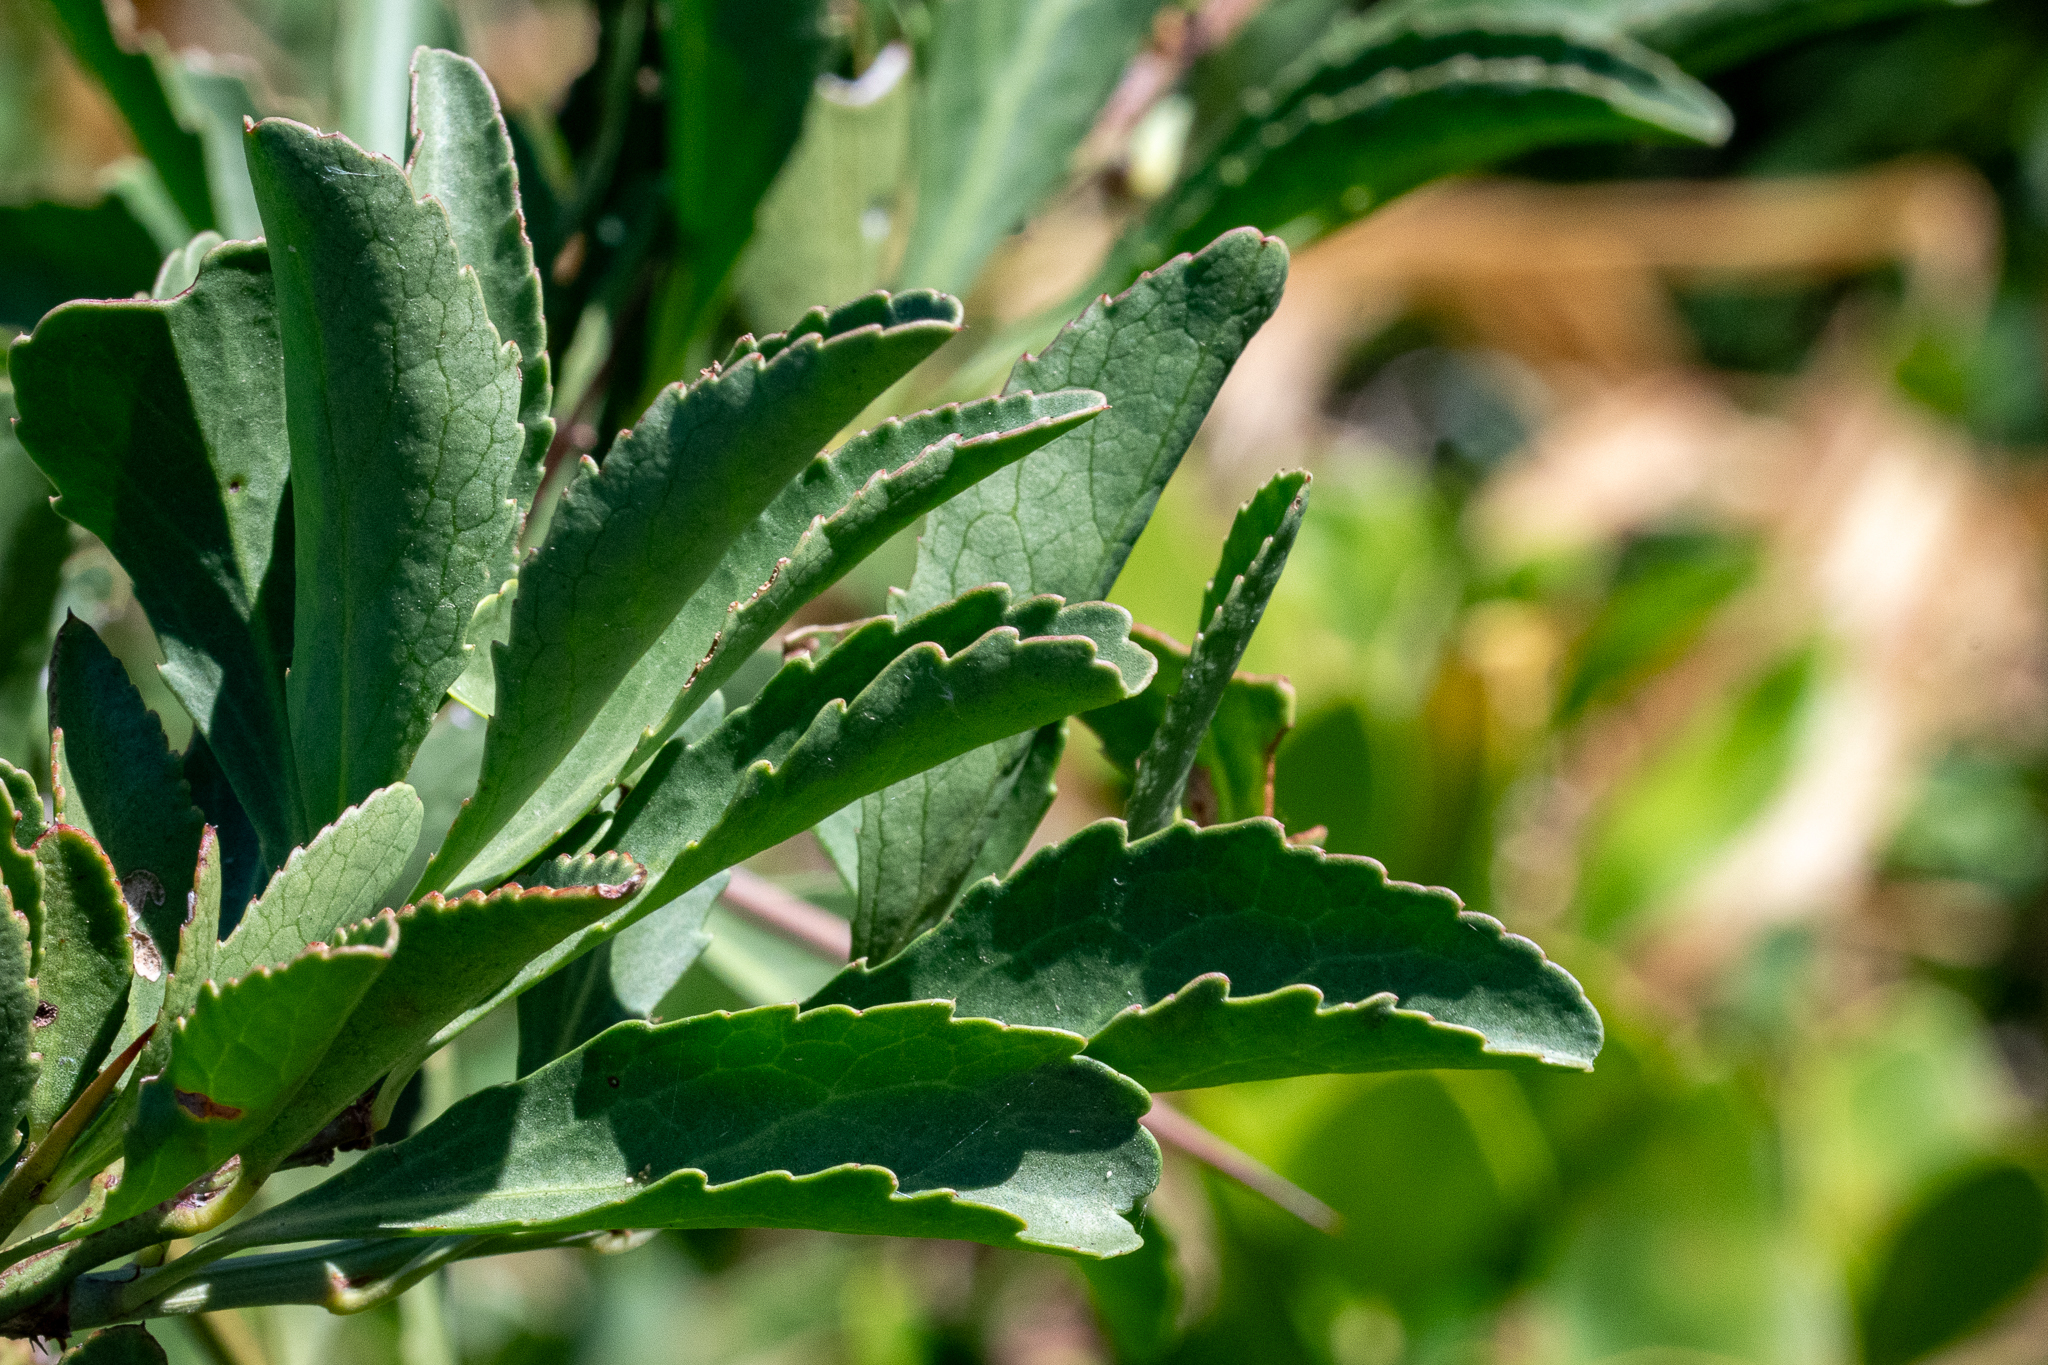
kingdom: Plantae
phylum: Tracheophyta
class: Magnoliopsida
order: Celastrales
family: Celastraceae
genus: Gymnosporia
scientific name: Gymnosporia buxifolia
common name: Common spike-thorn
